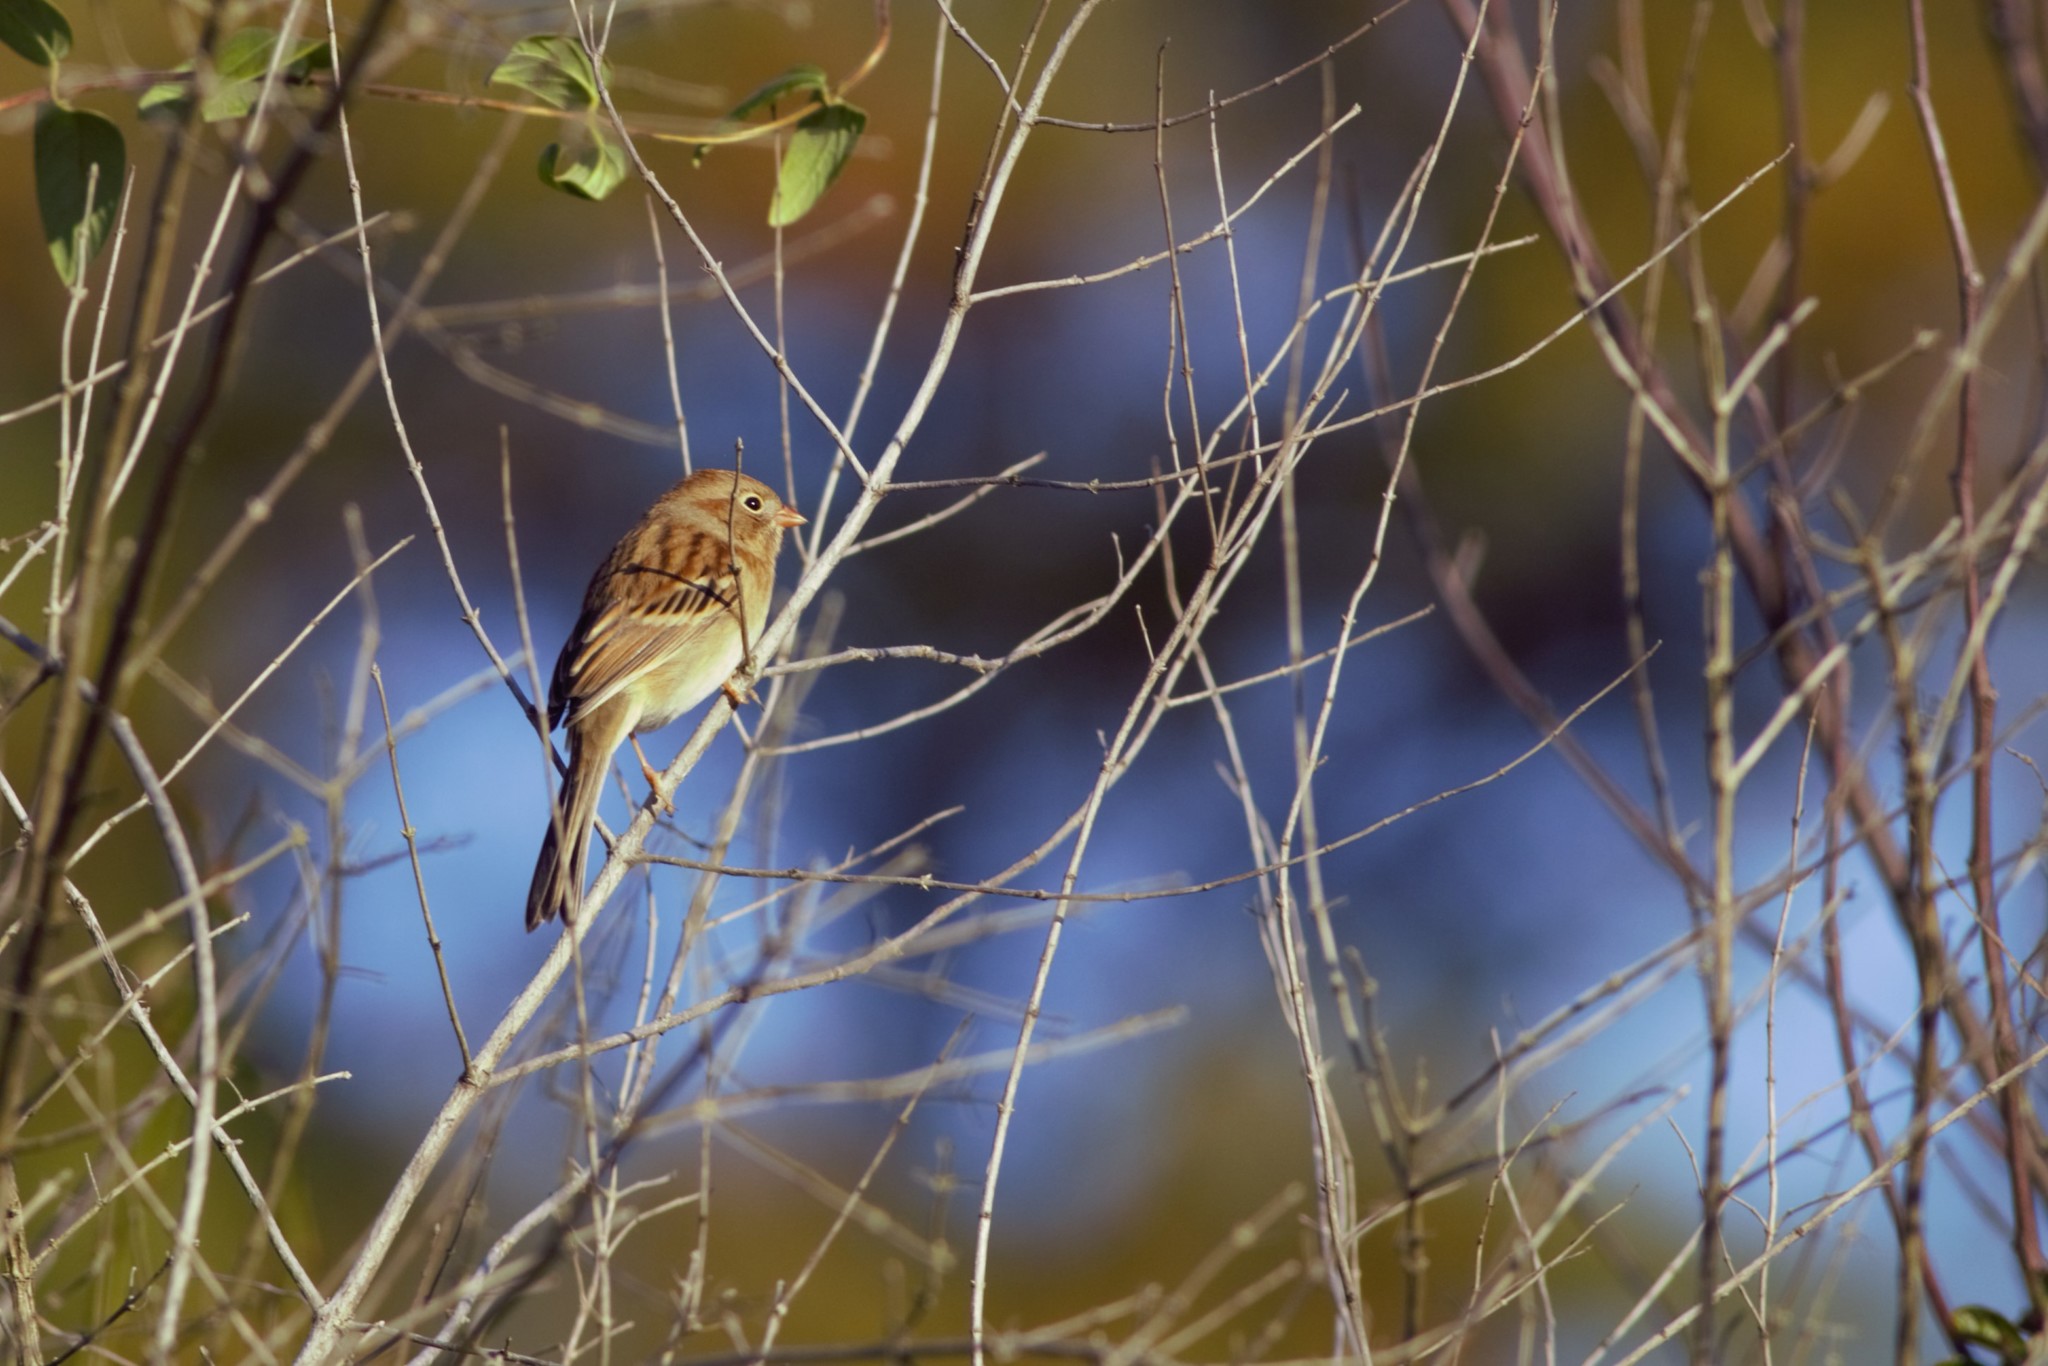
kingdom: Animalia
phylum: Chordata
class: Aves
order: Passeriformes
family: Passerellidae
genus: Spizella
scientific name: Spizella pusilla
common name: Field sparrow
